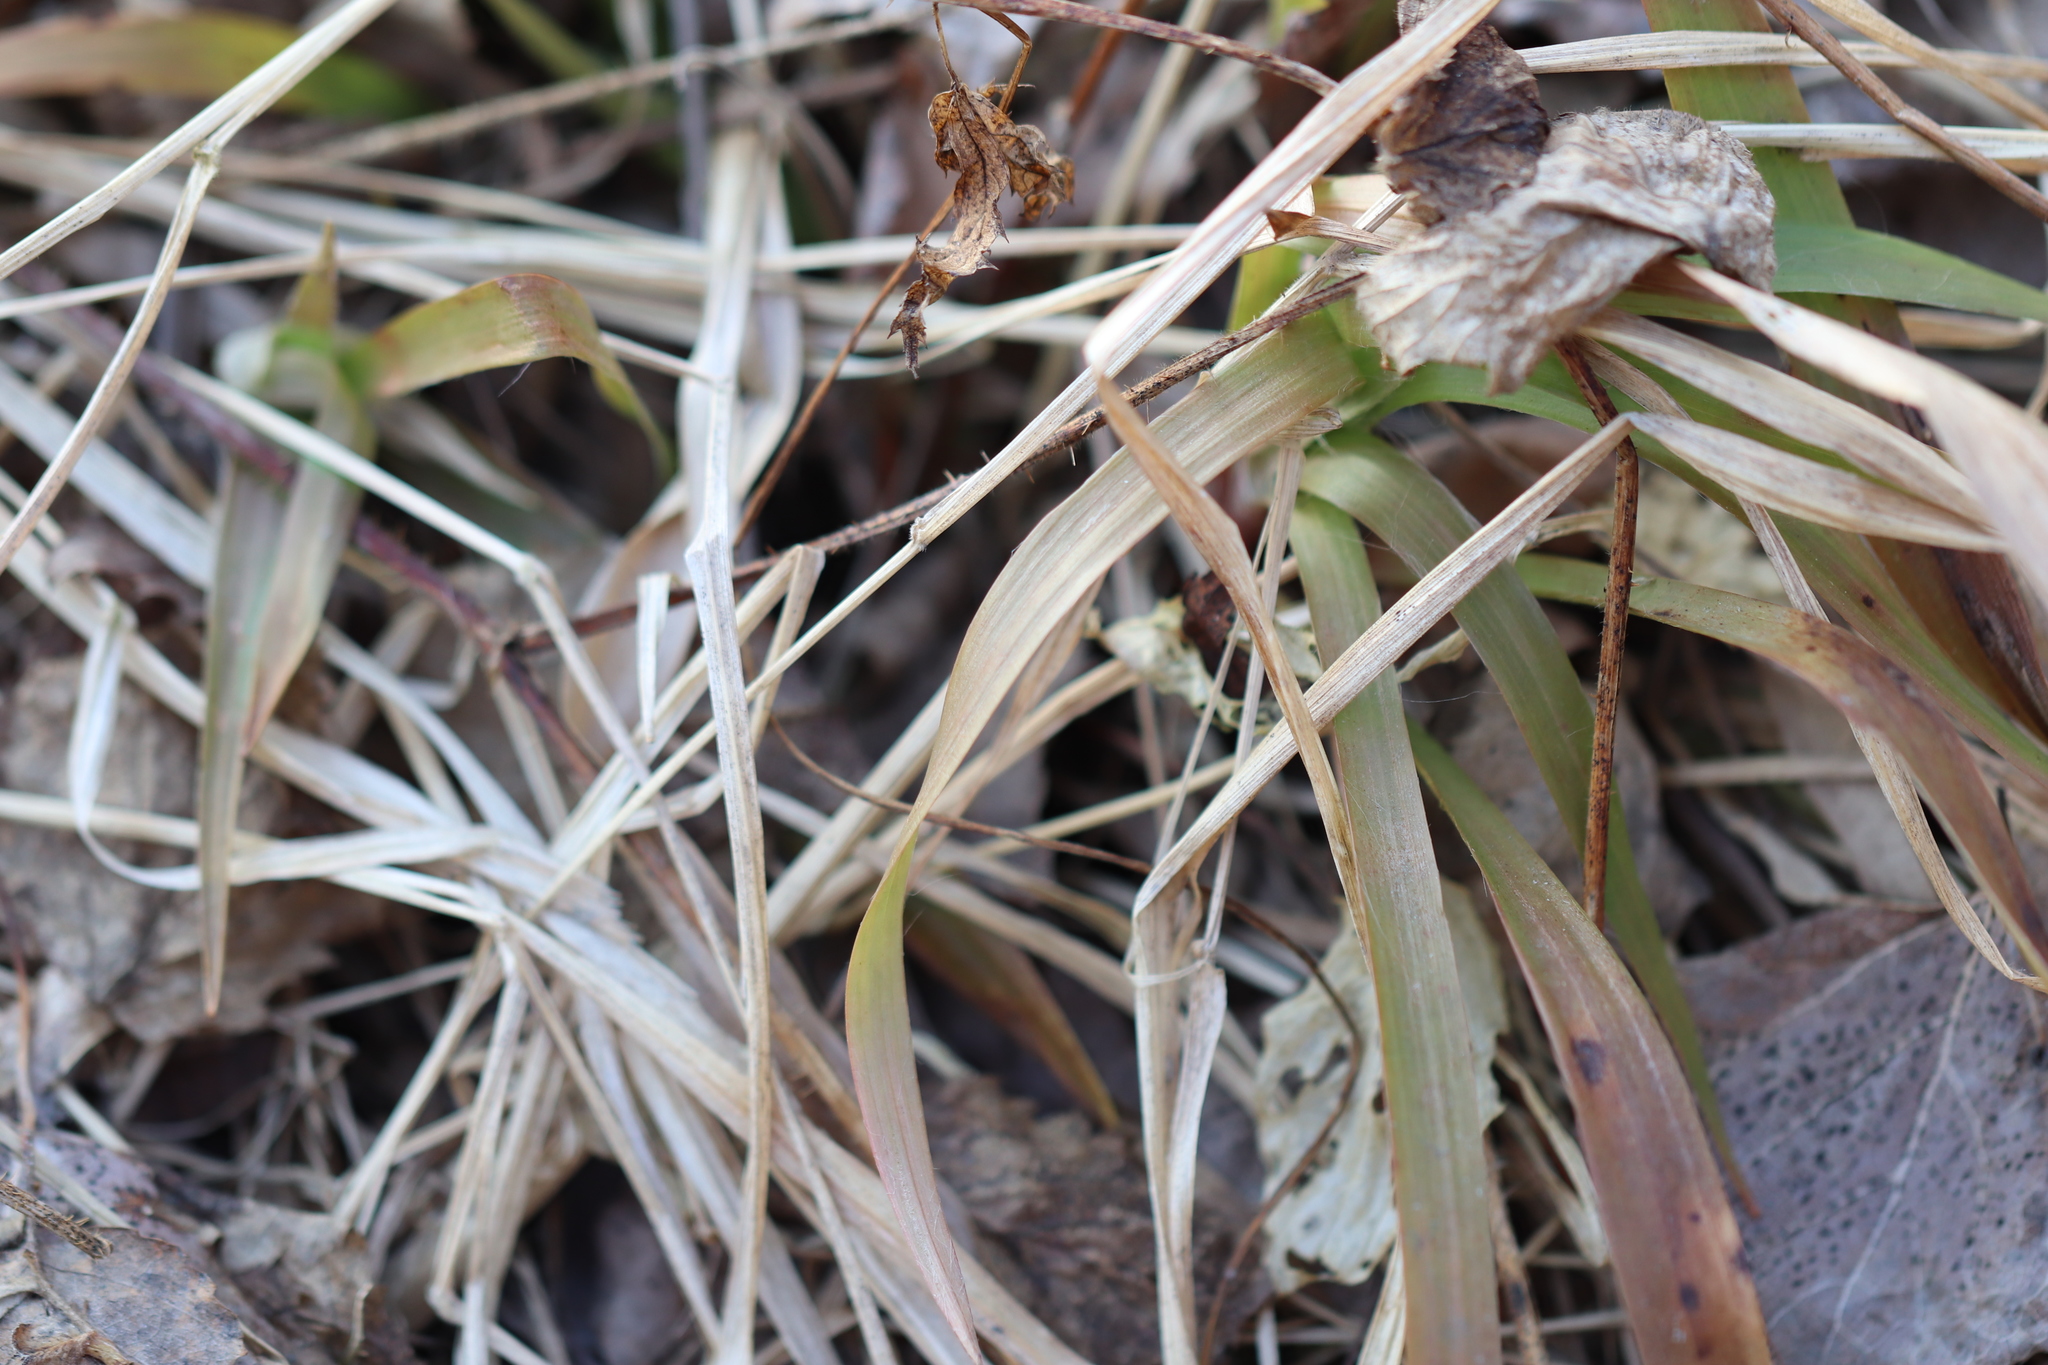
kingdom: Plantae
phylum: Tracheophyta
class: Liliopsida
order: Poales
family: Juncaceae
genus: Luzula
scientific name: Luzula pilosa
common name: Hairy wood-rush
